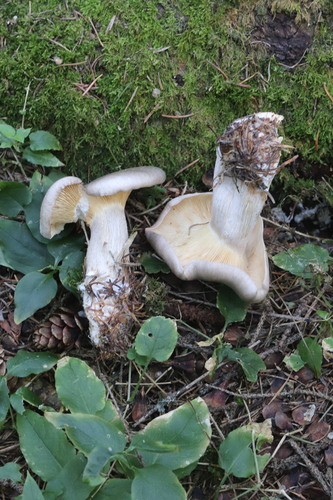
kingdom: Fungi
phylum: Basidiomycota
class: Agaricomycetes
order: Agaricales
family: Tricholomataceae
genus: Clitocybe
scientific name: Clitocybe nebularis
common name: Clouded agaric
